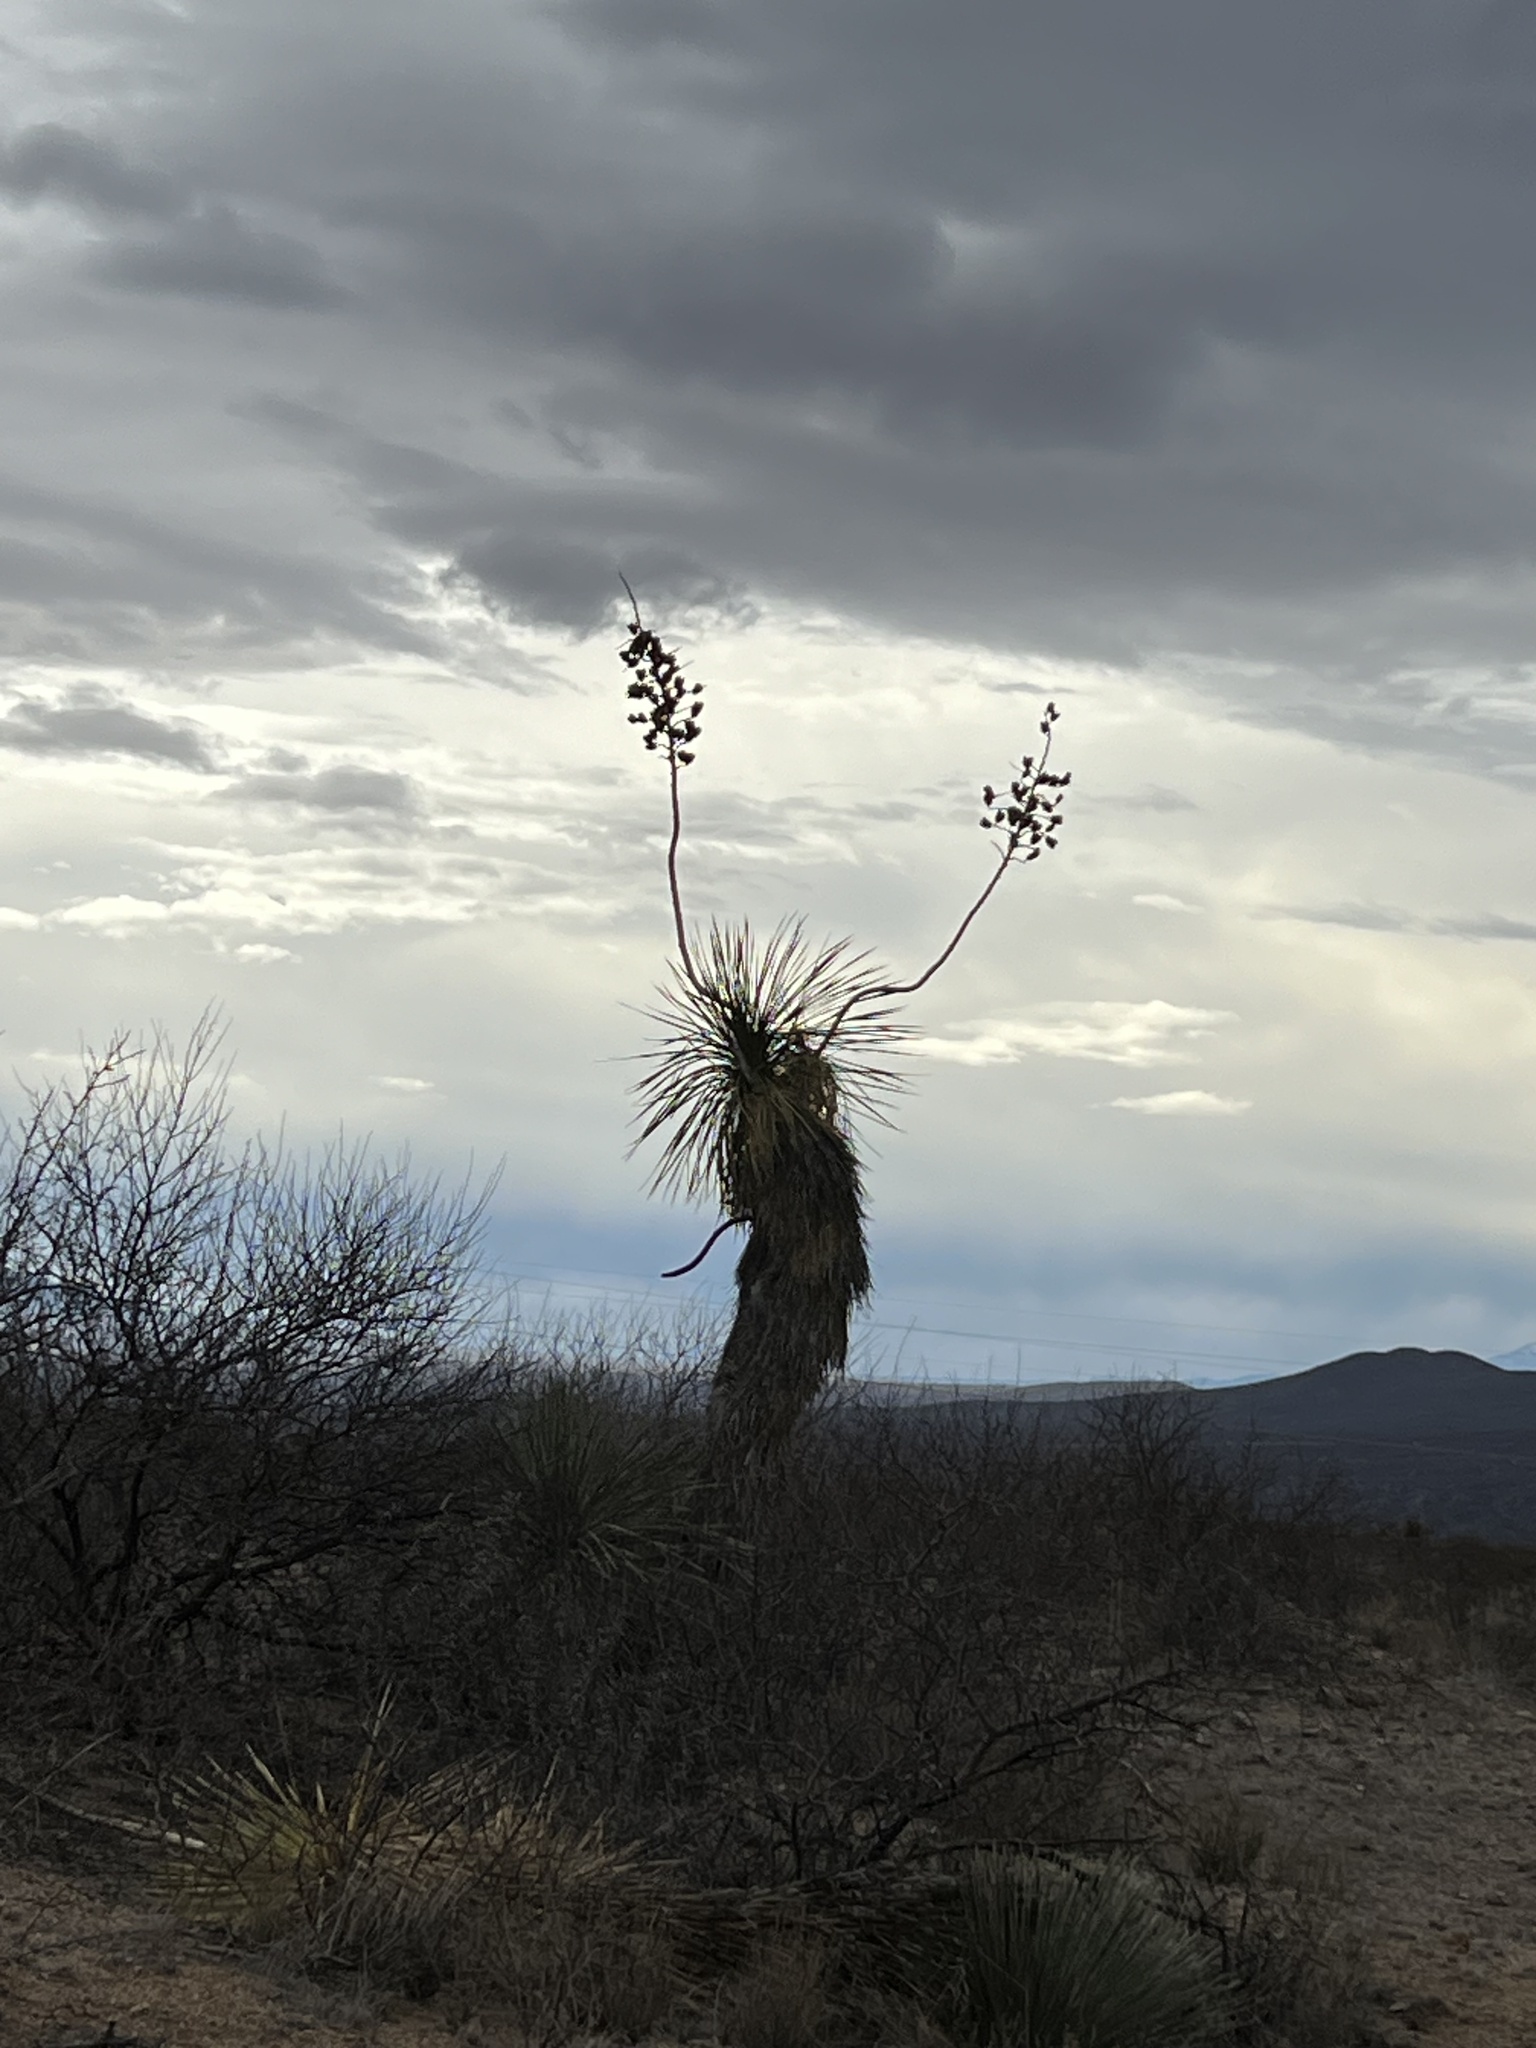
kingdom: Plantae
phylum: Tracheophyta
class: Liliopsida
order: Asparagales
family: Asparagaceae
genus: Yucca
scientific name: Yucca elata
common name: Palmella
